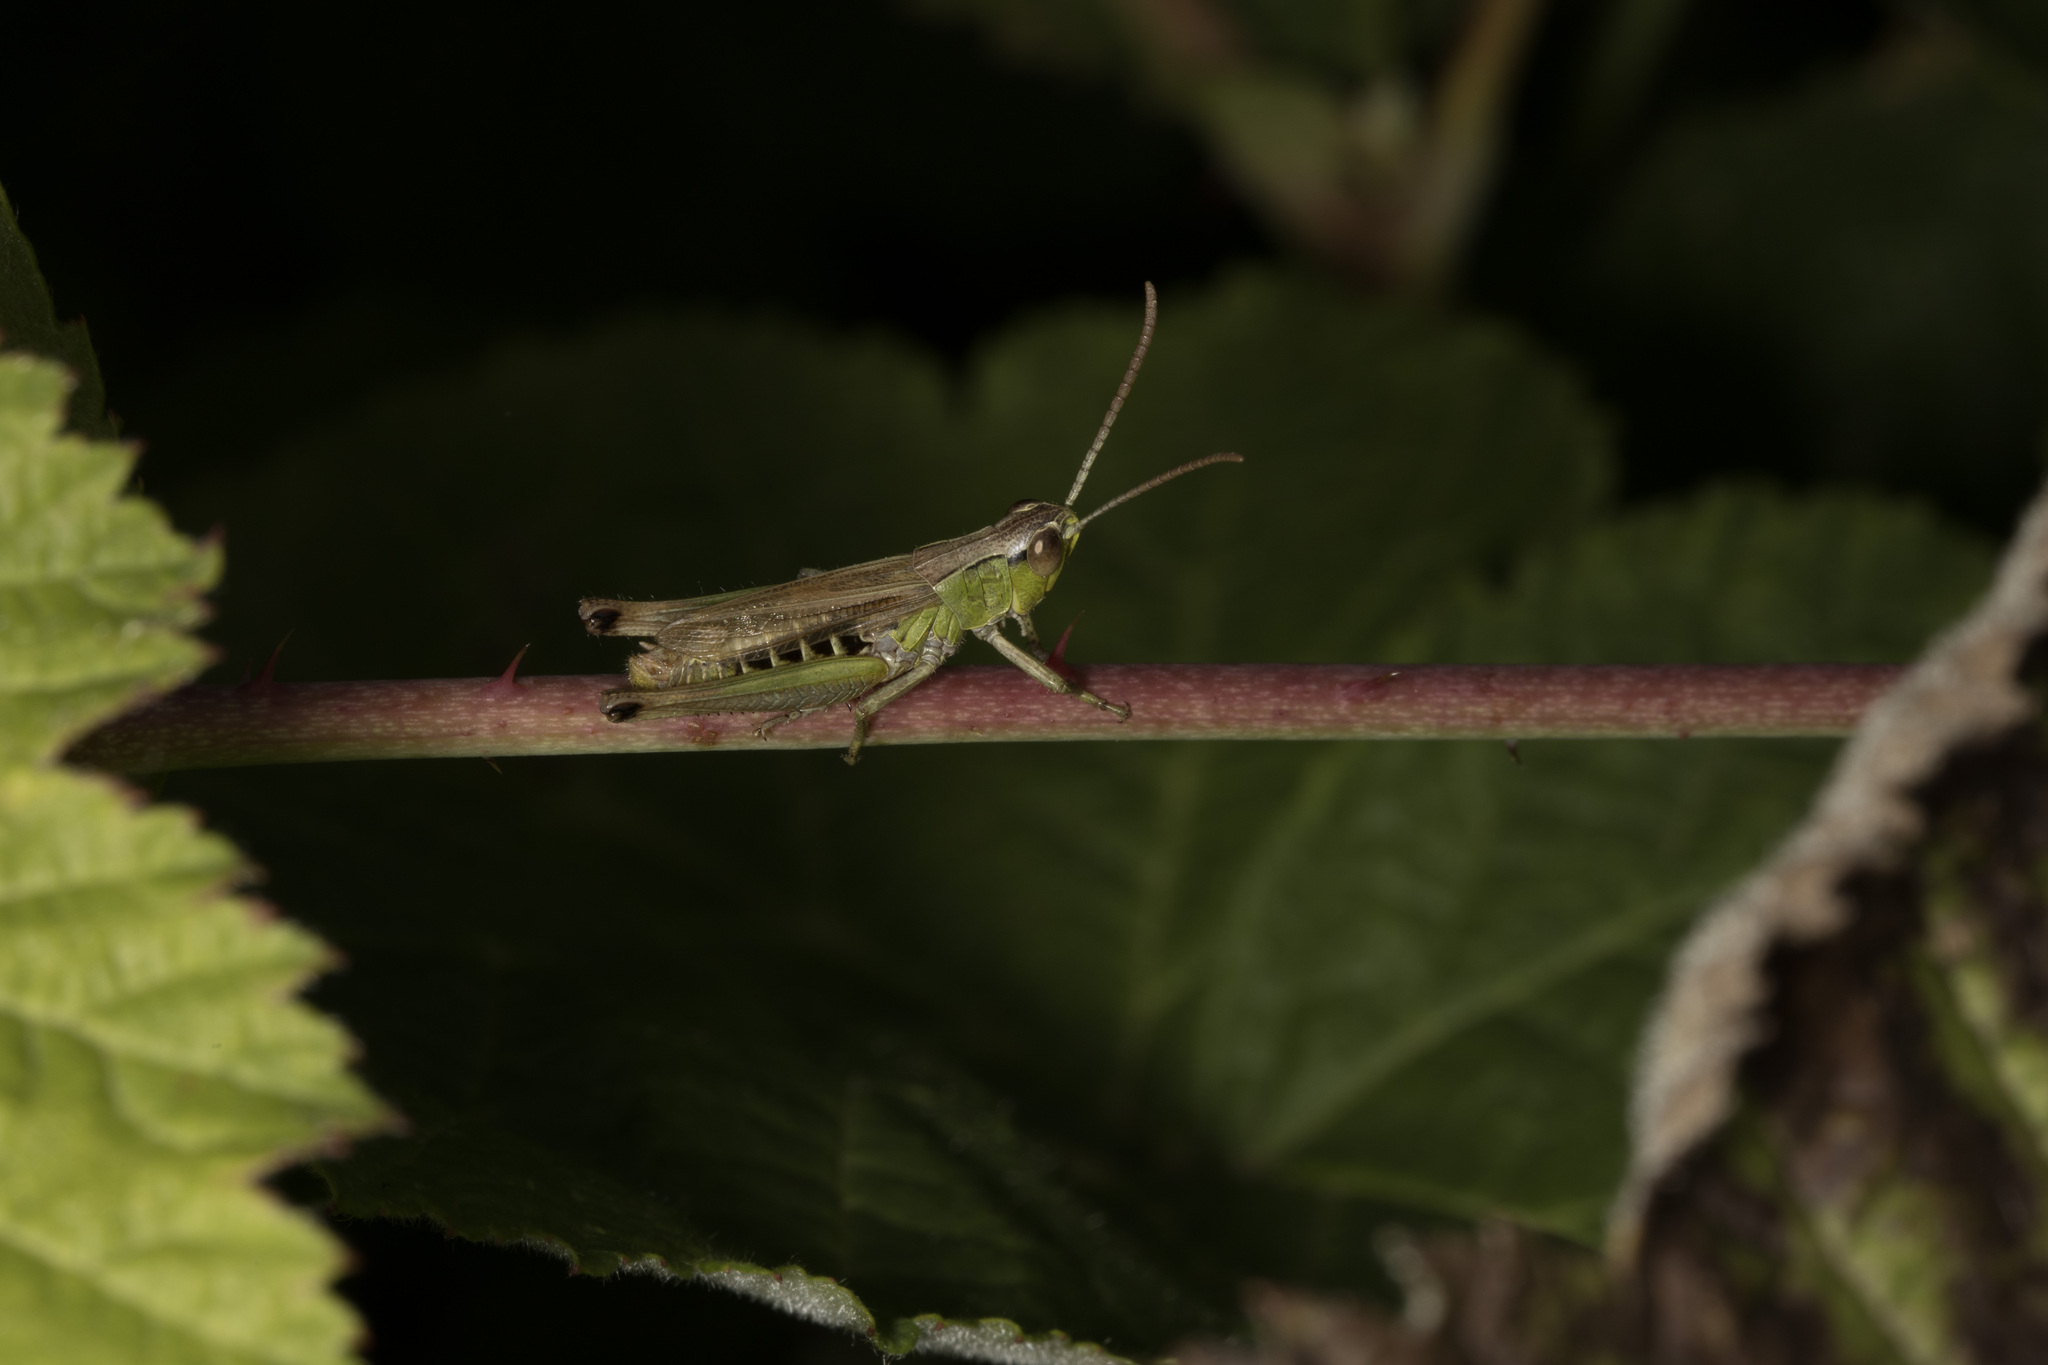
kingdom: Animalia
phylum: Arthropoda
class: Insecta
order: Orthoptera
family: Acrididae
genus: Pseudochorthippus
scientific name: Pseudochorthippus parallelus
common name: Meadow grasshopper
